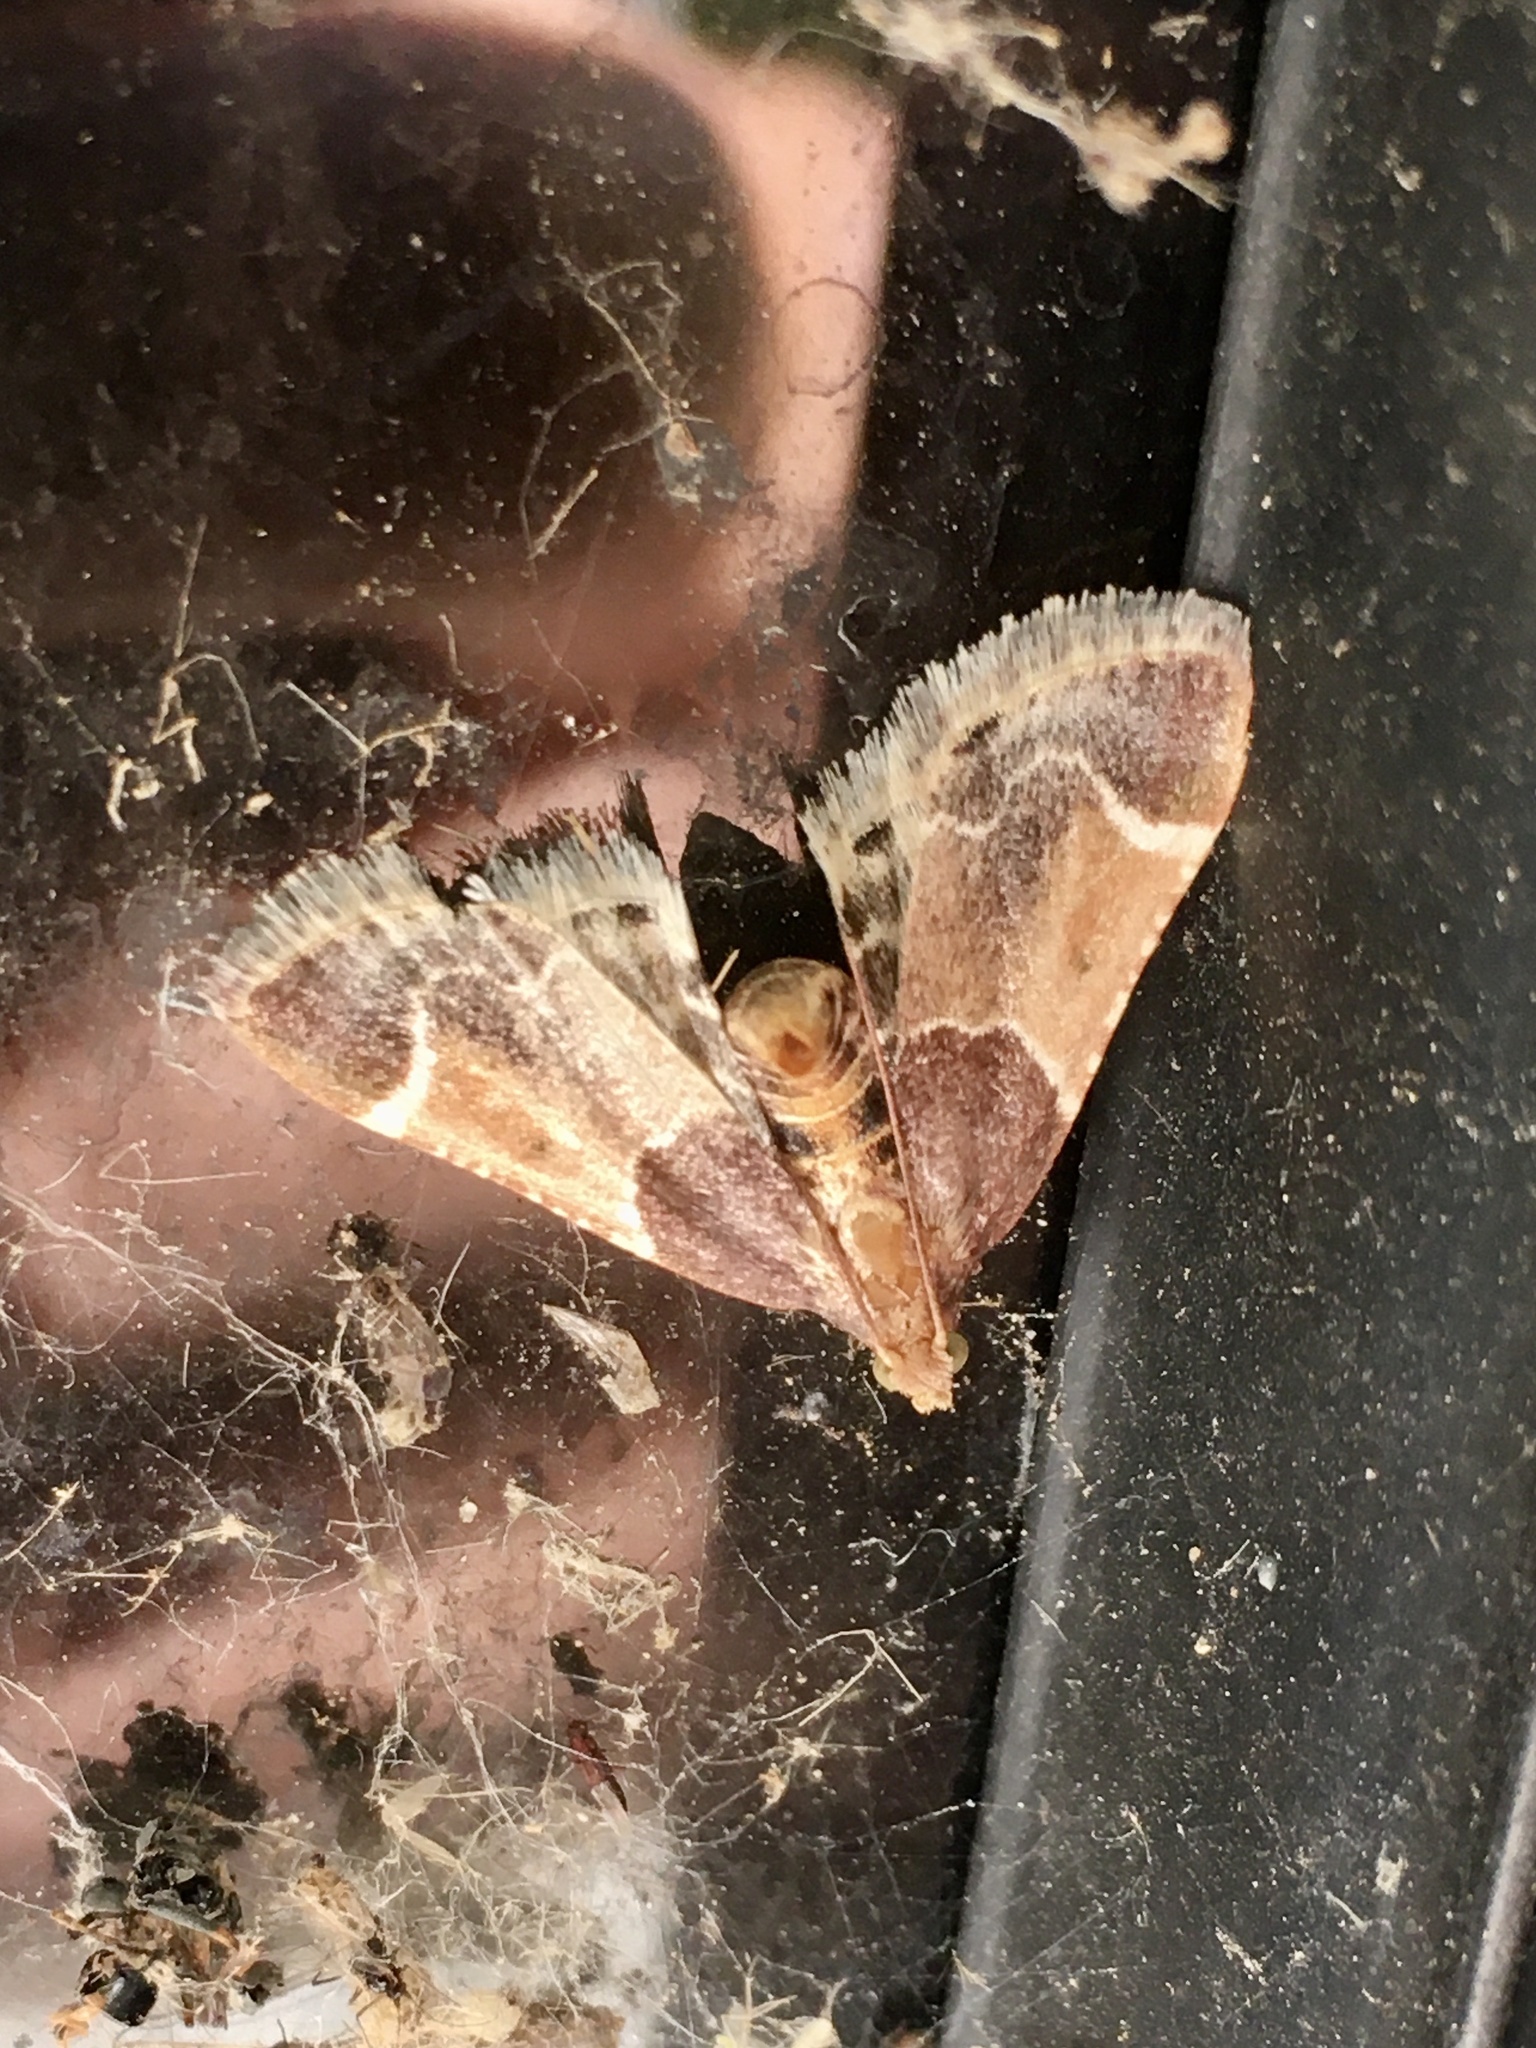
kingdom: Animalia
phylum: Arthropoda
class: Insecta
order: Lepidoptera
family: Pyralidae
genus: Pyralis
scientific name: Pyralis farinalis
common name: Meal moth
